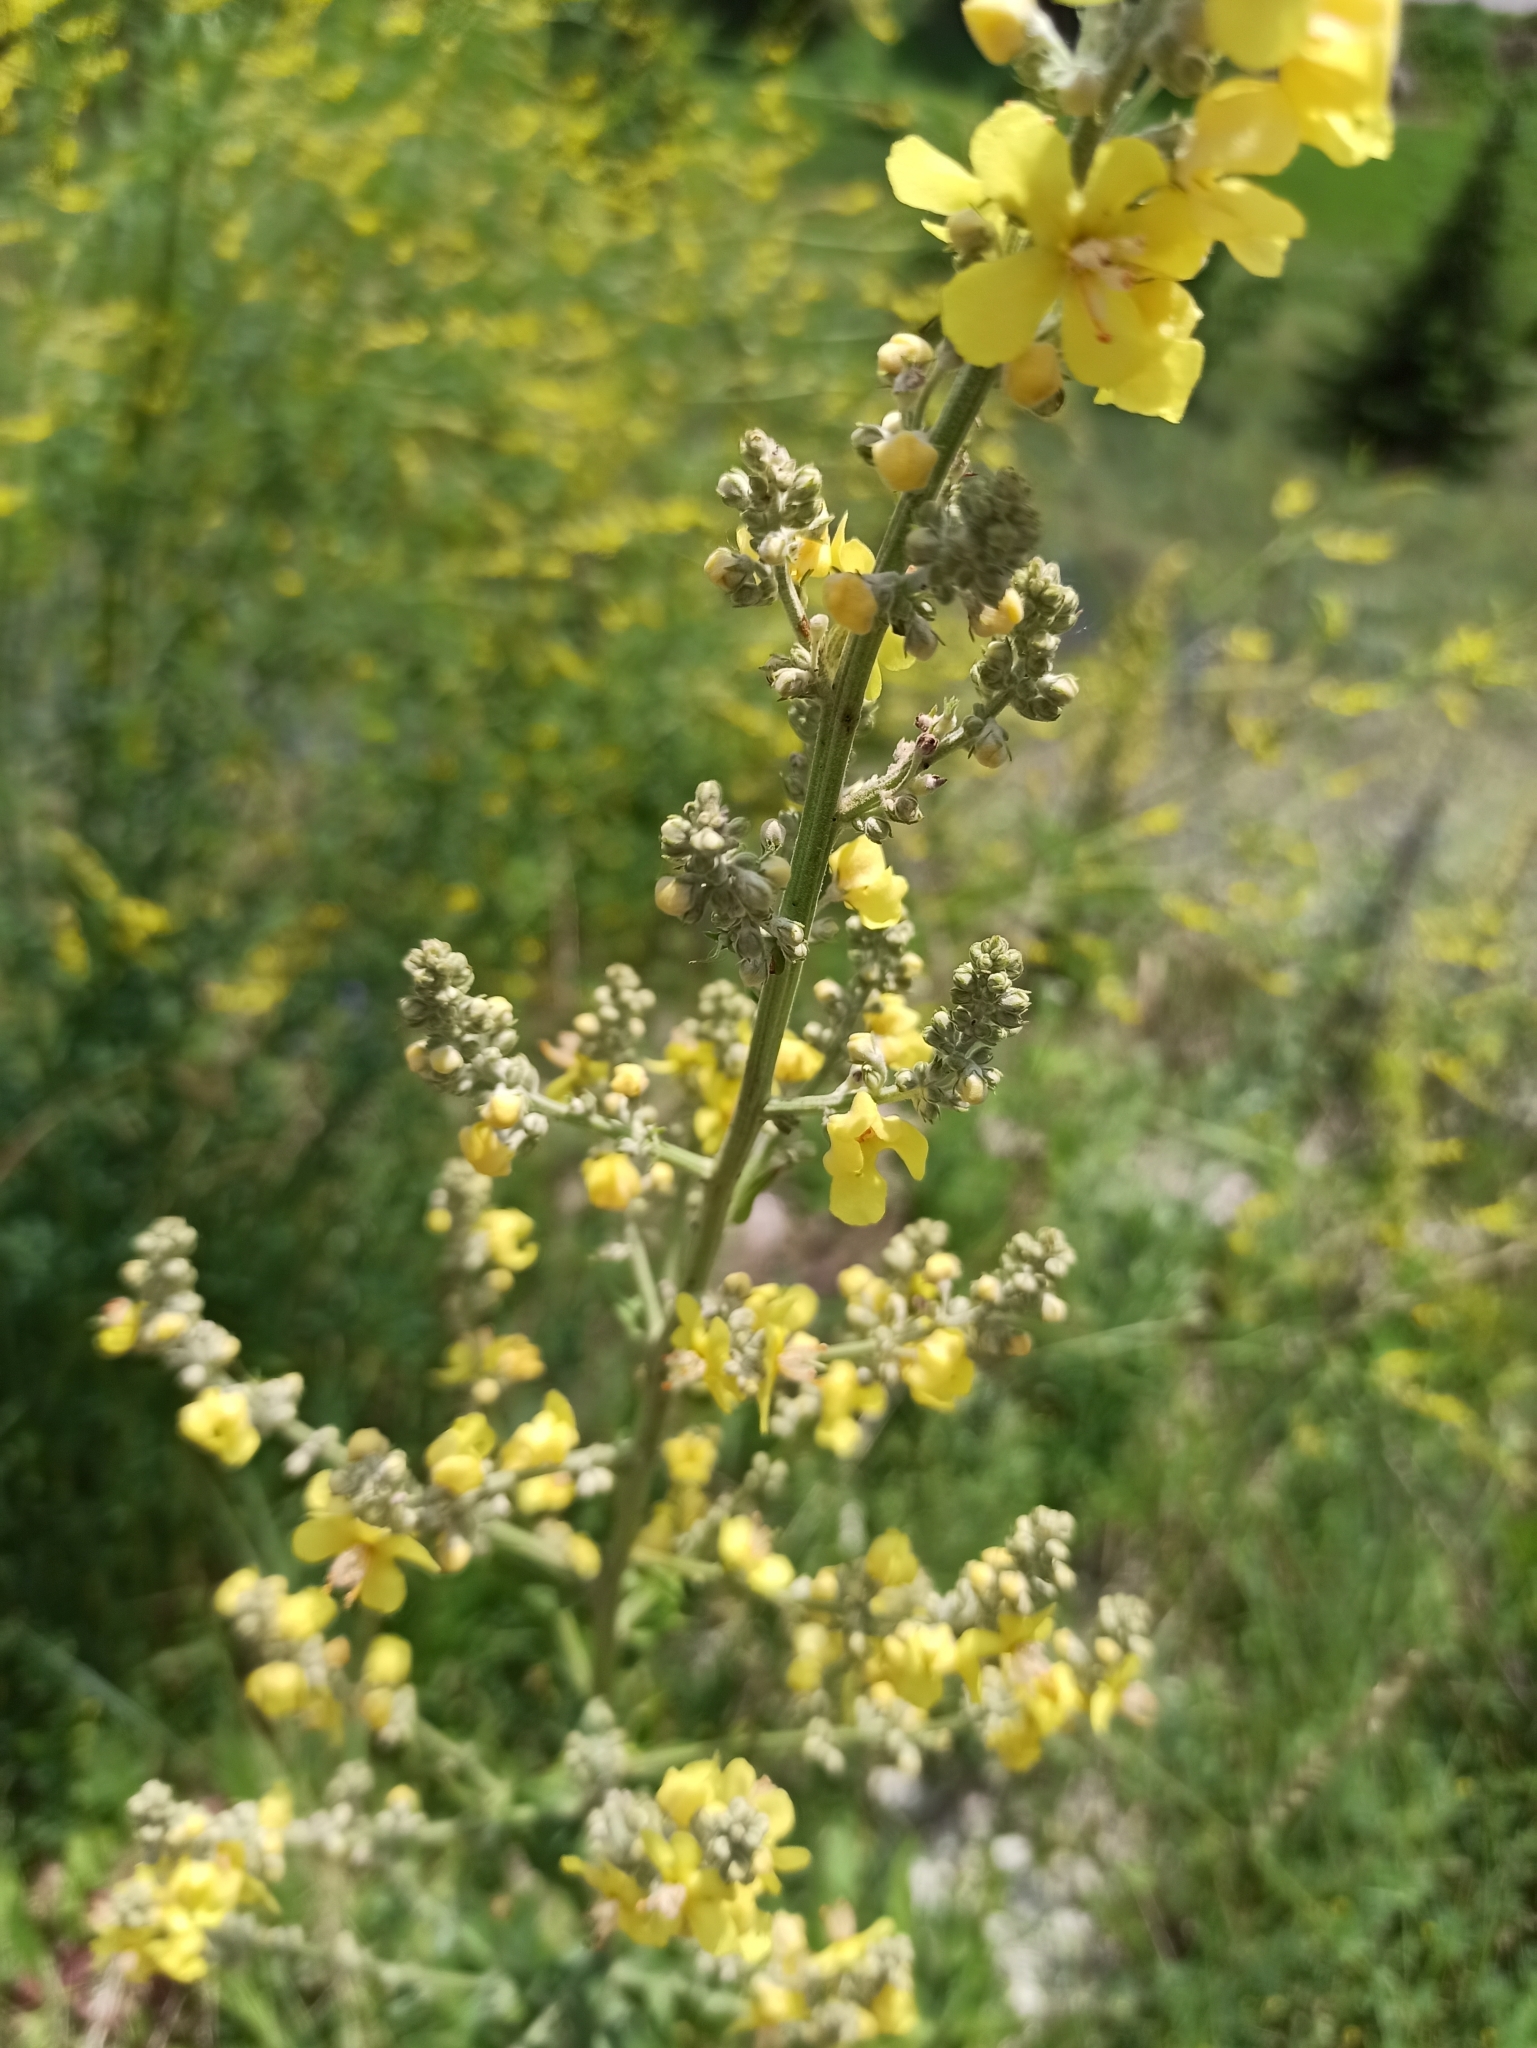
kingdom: Plantae
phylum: Tracheophyta
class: Magnoliopsida
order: Lamiales
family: Scrophulariaceae
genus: Verbascum
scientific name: Verbascum lychnitis
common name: White mullein
